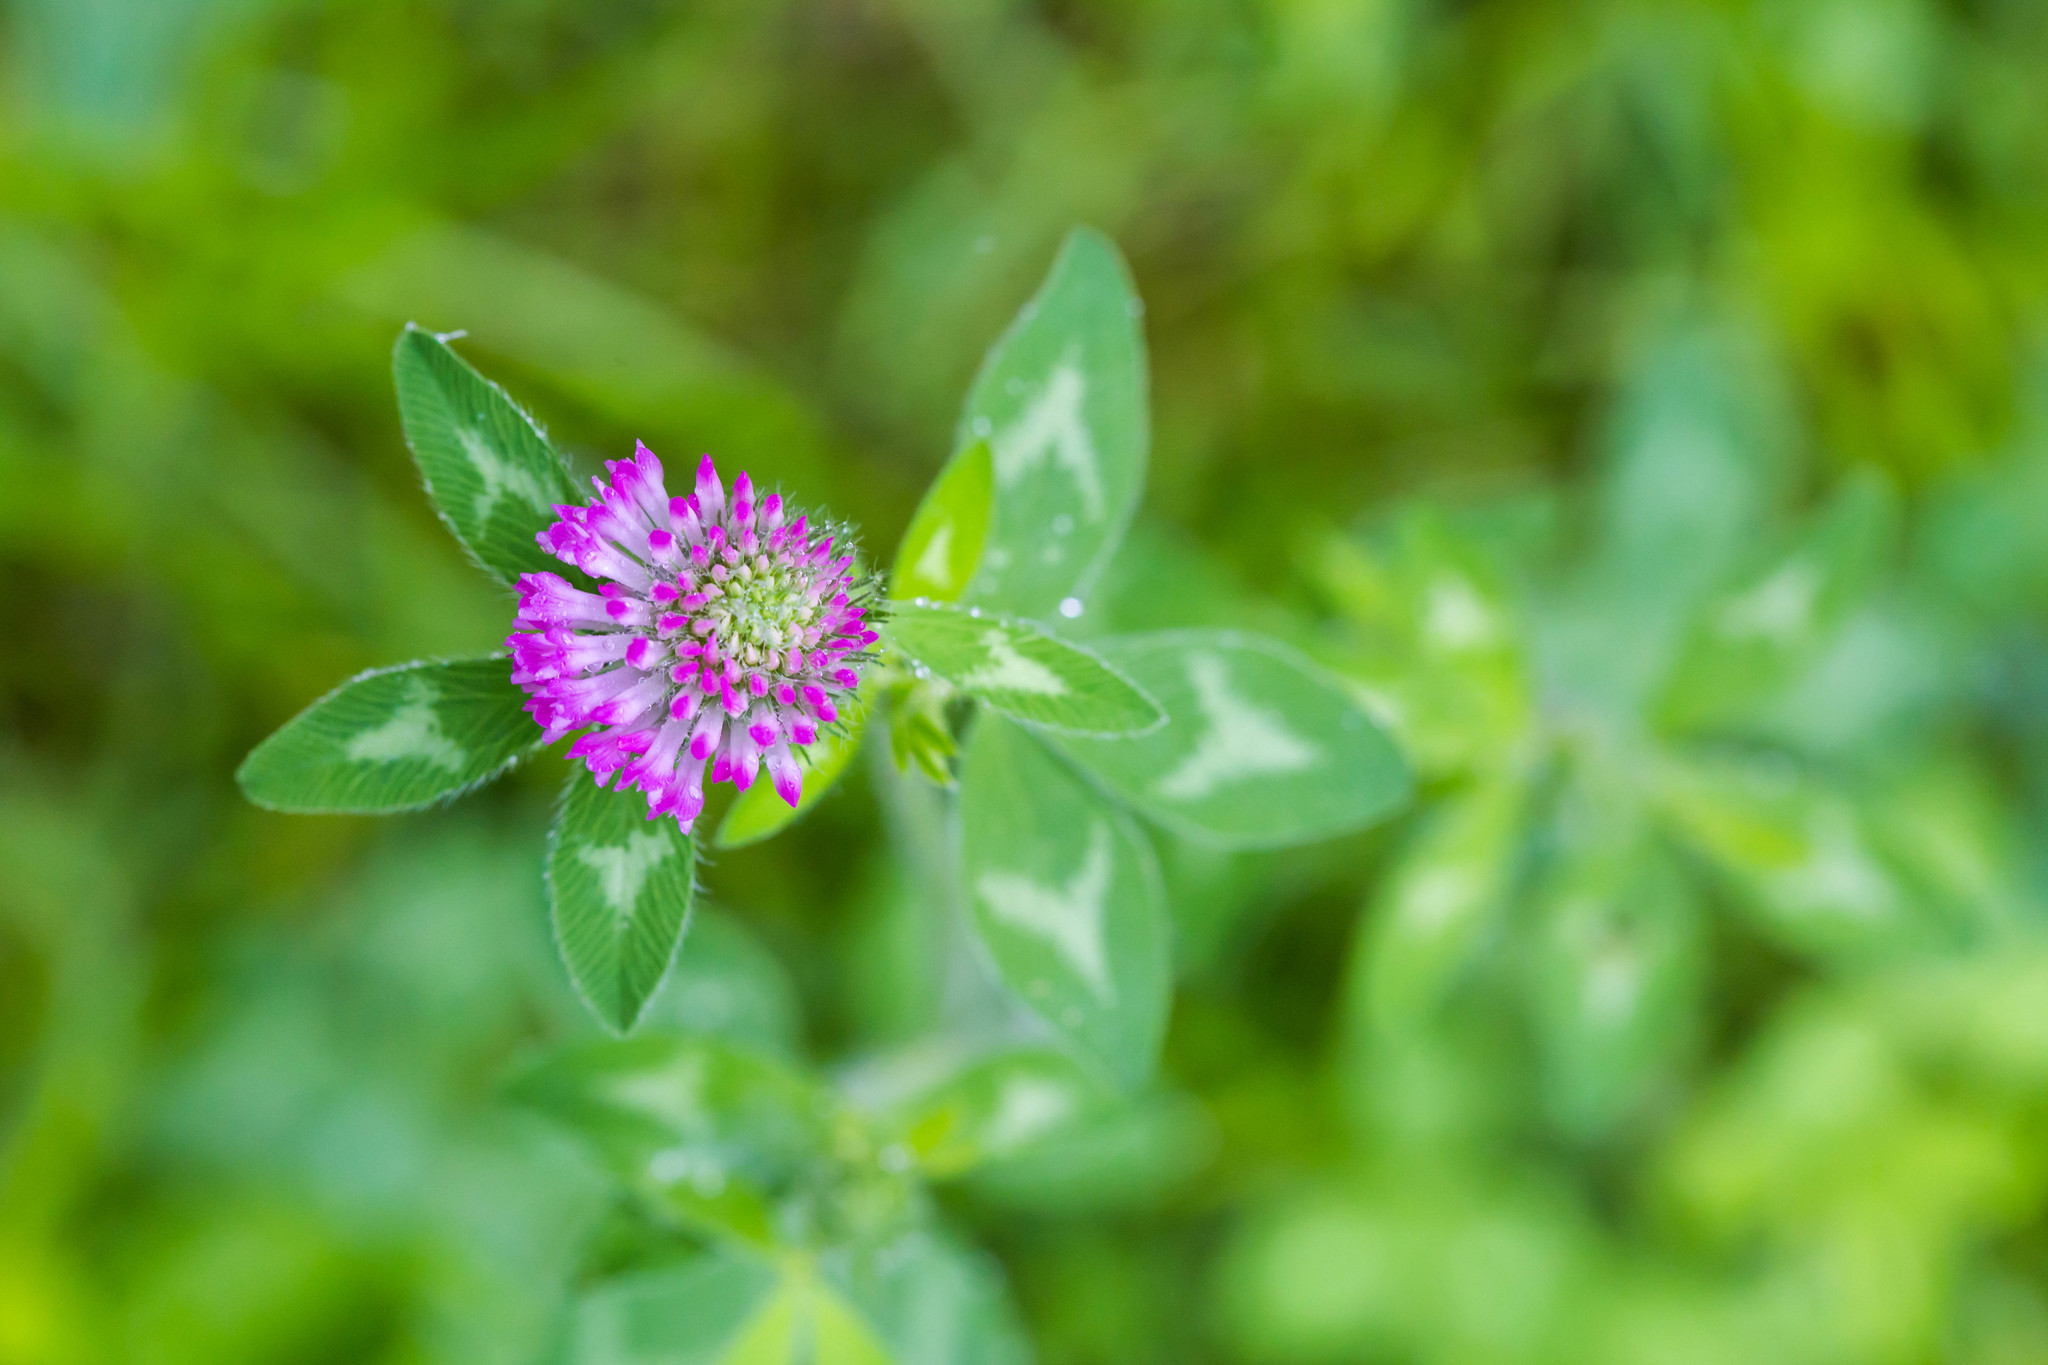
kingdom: Plantae
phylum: Tracheophyta
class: Magnoliopsida
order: Fabales
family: Fabaceae
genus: Trifolium
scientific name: Trifolium pratense
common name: Red clover
